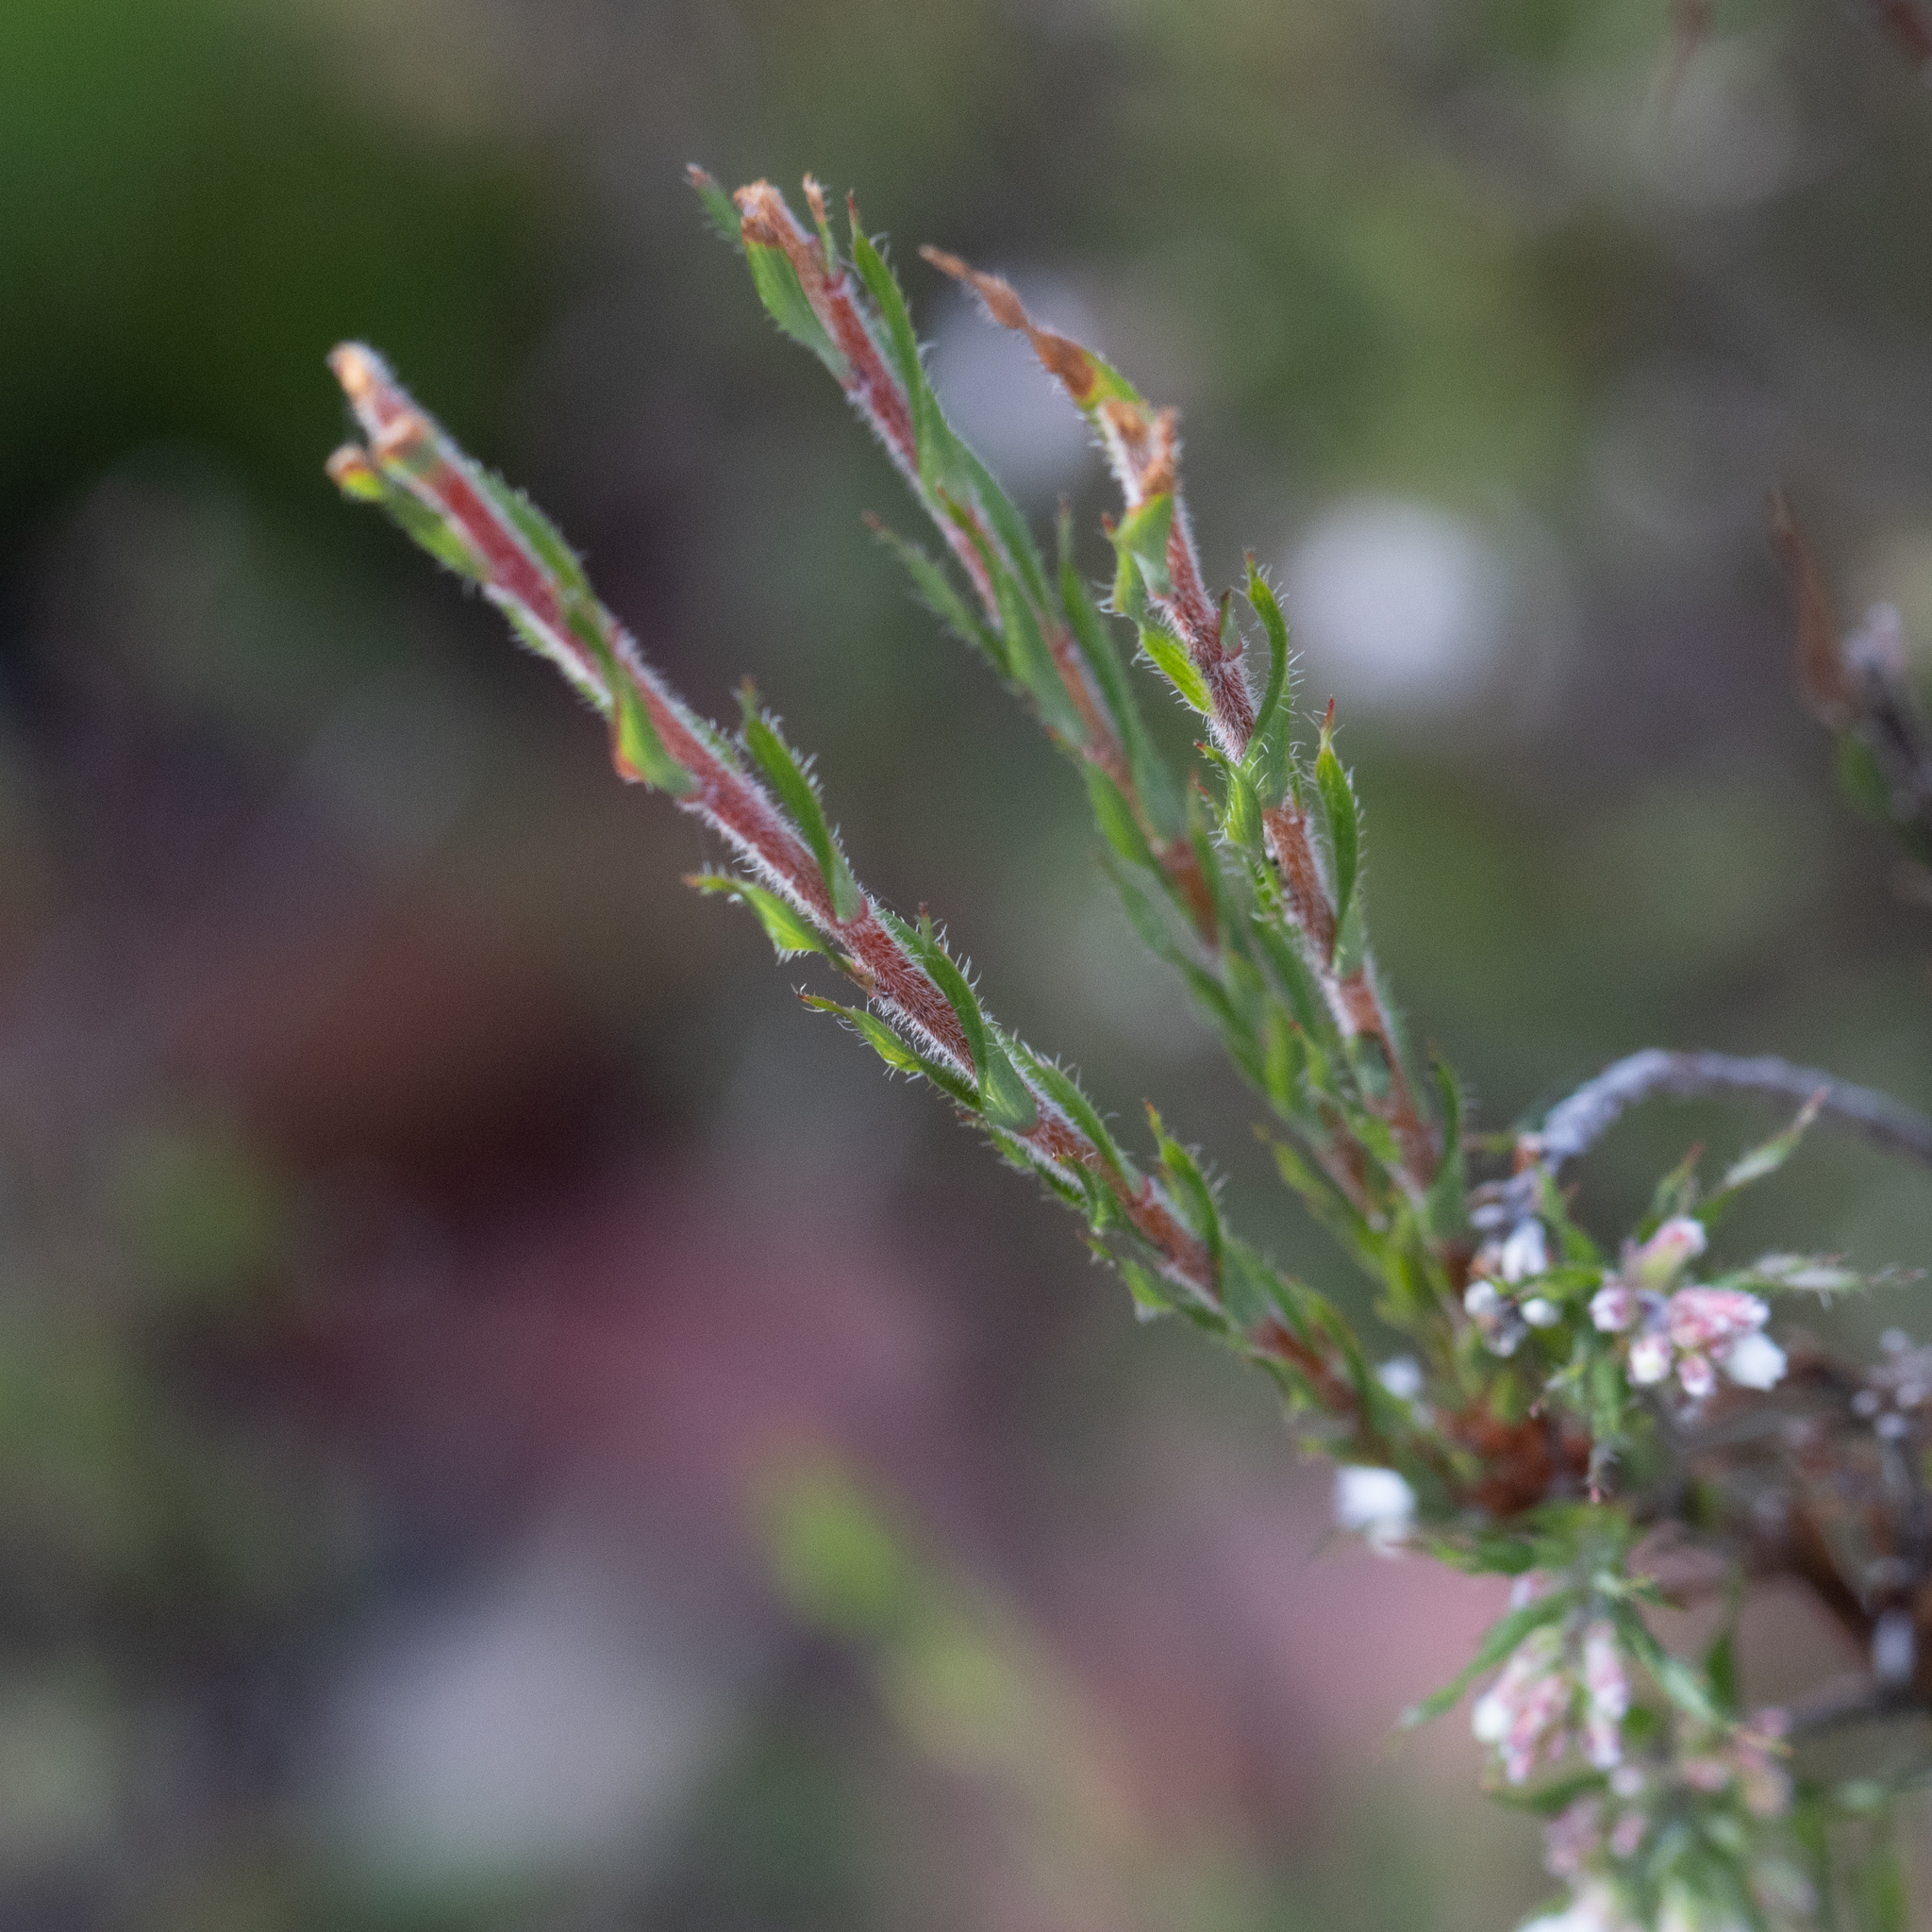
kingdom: Plantae
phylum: Tracheophyta
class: Magnoliopsida
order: Ericales
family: Ericaceae
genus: Leucopogon
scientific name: Leucopogon glacialis
